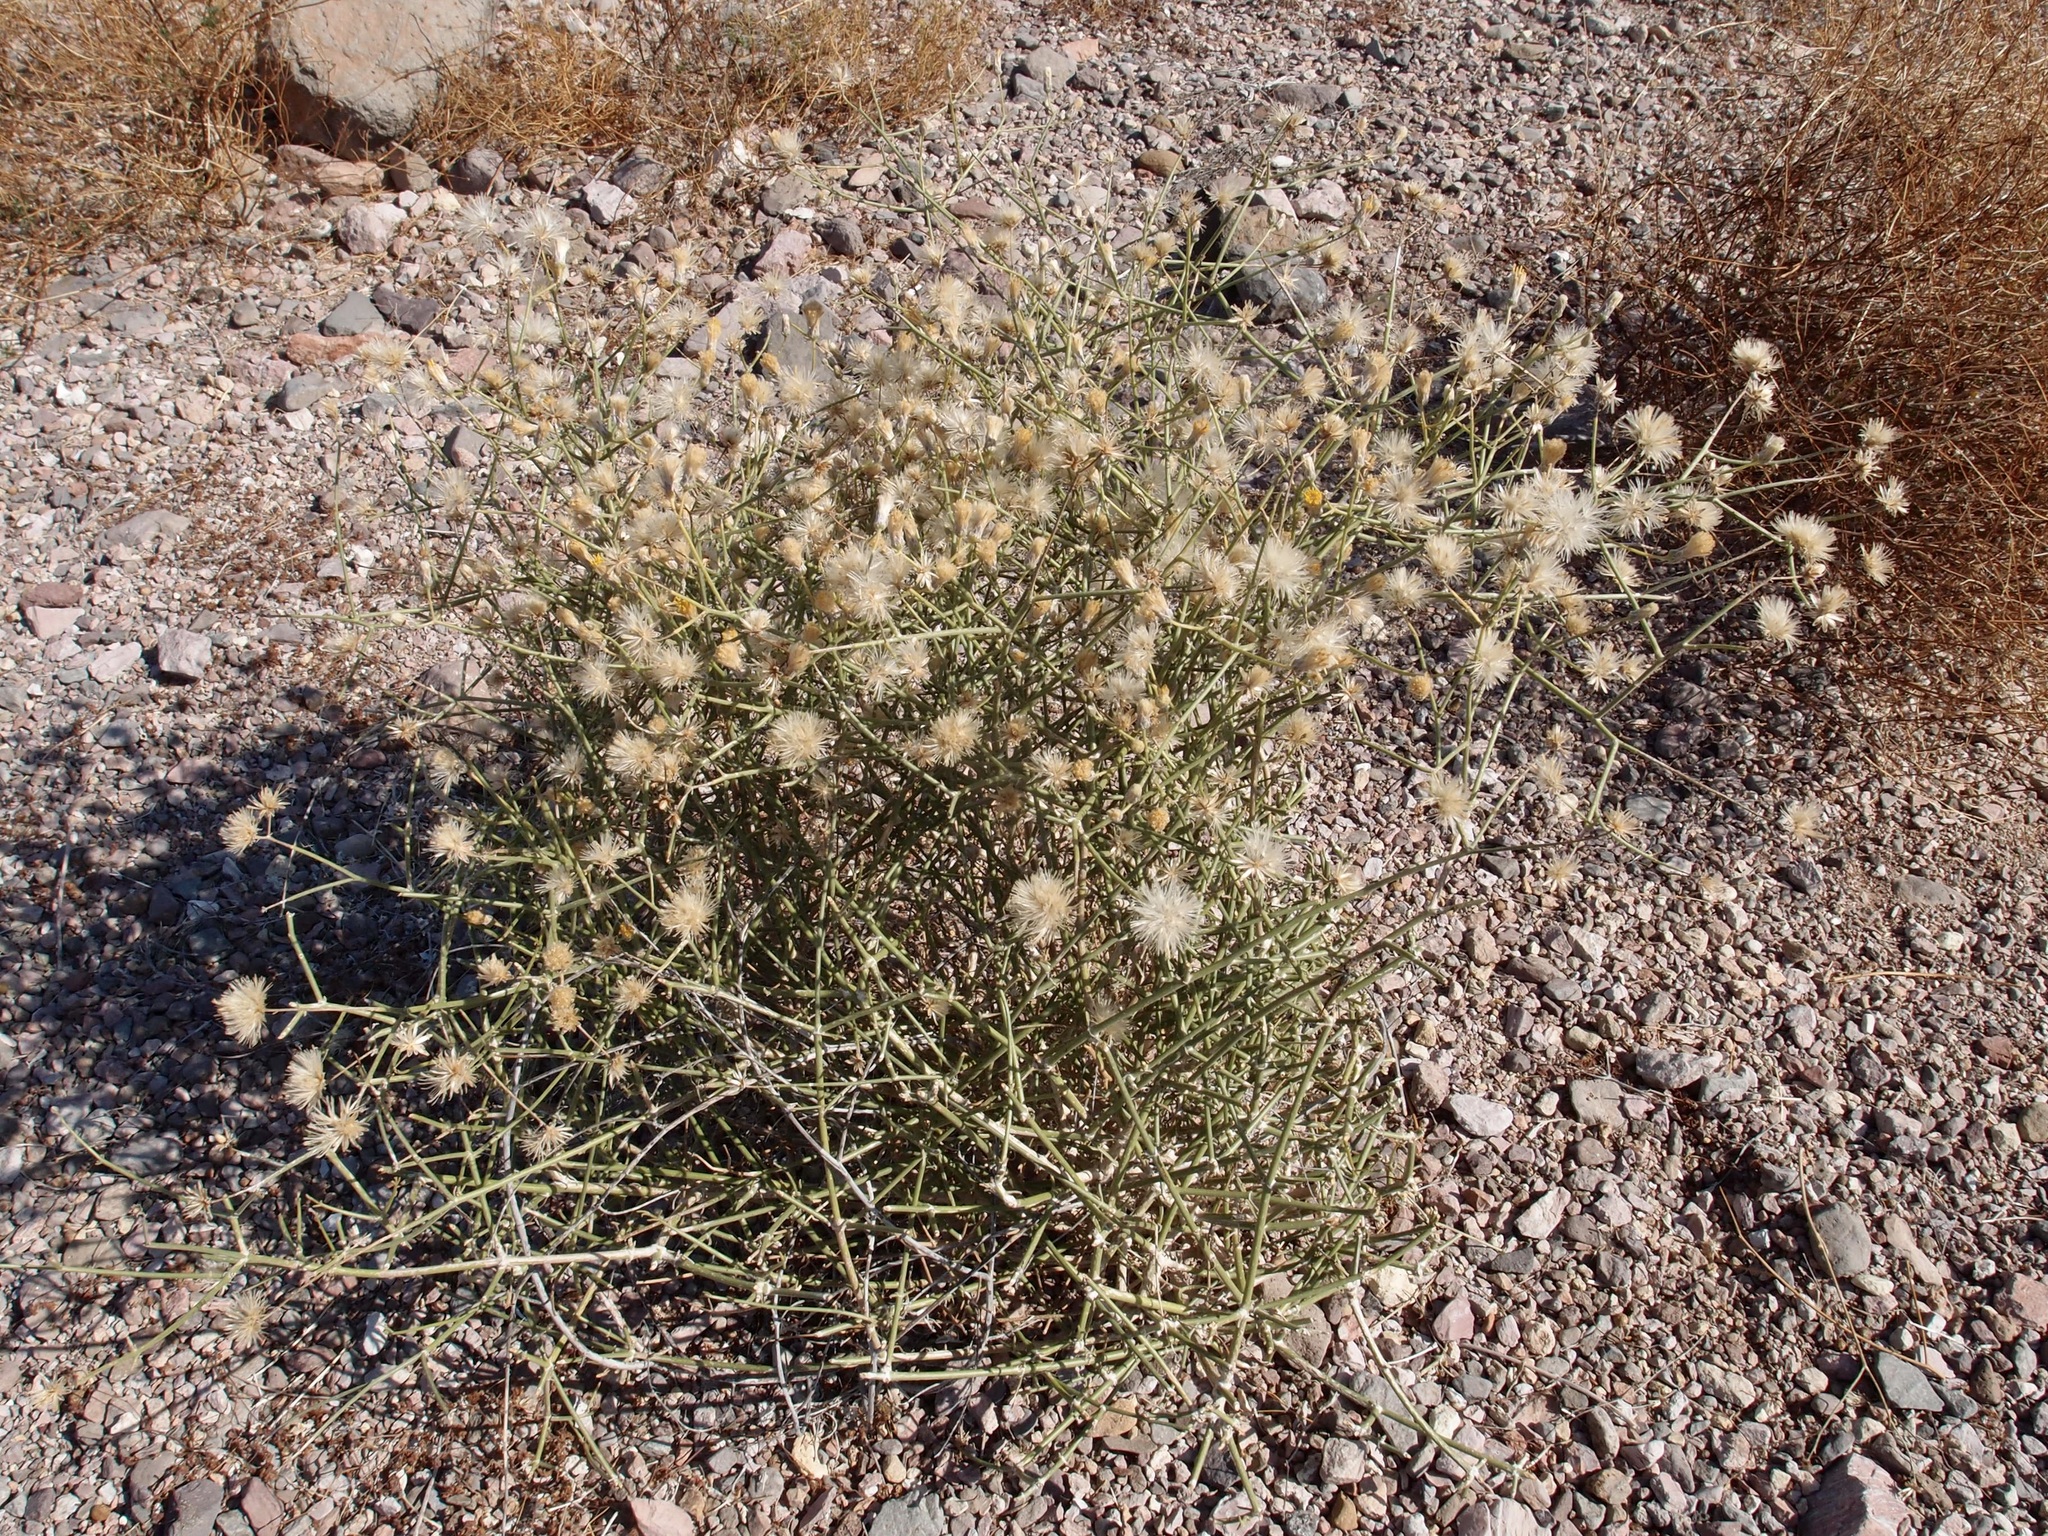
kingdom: Plantae
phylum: Tracheophyta
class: Magnoliopsida
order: Asterales
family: Asteraceae
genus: Bebbia
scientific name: Bebbia juncea
